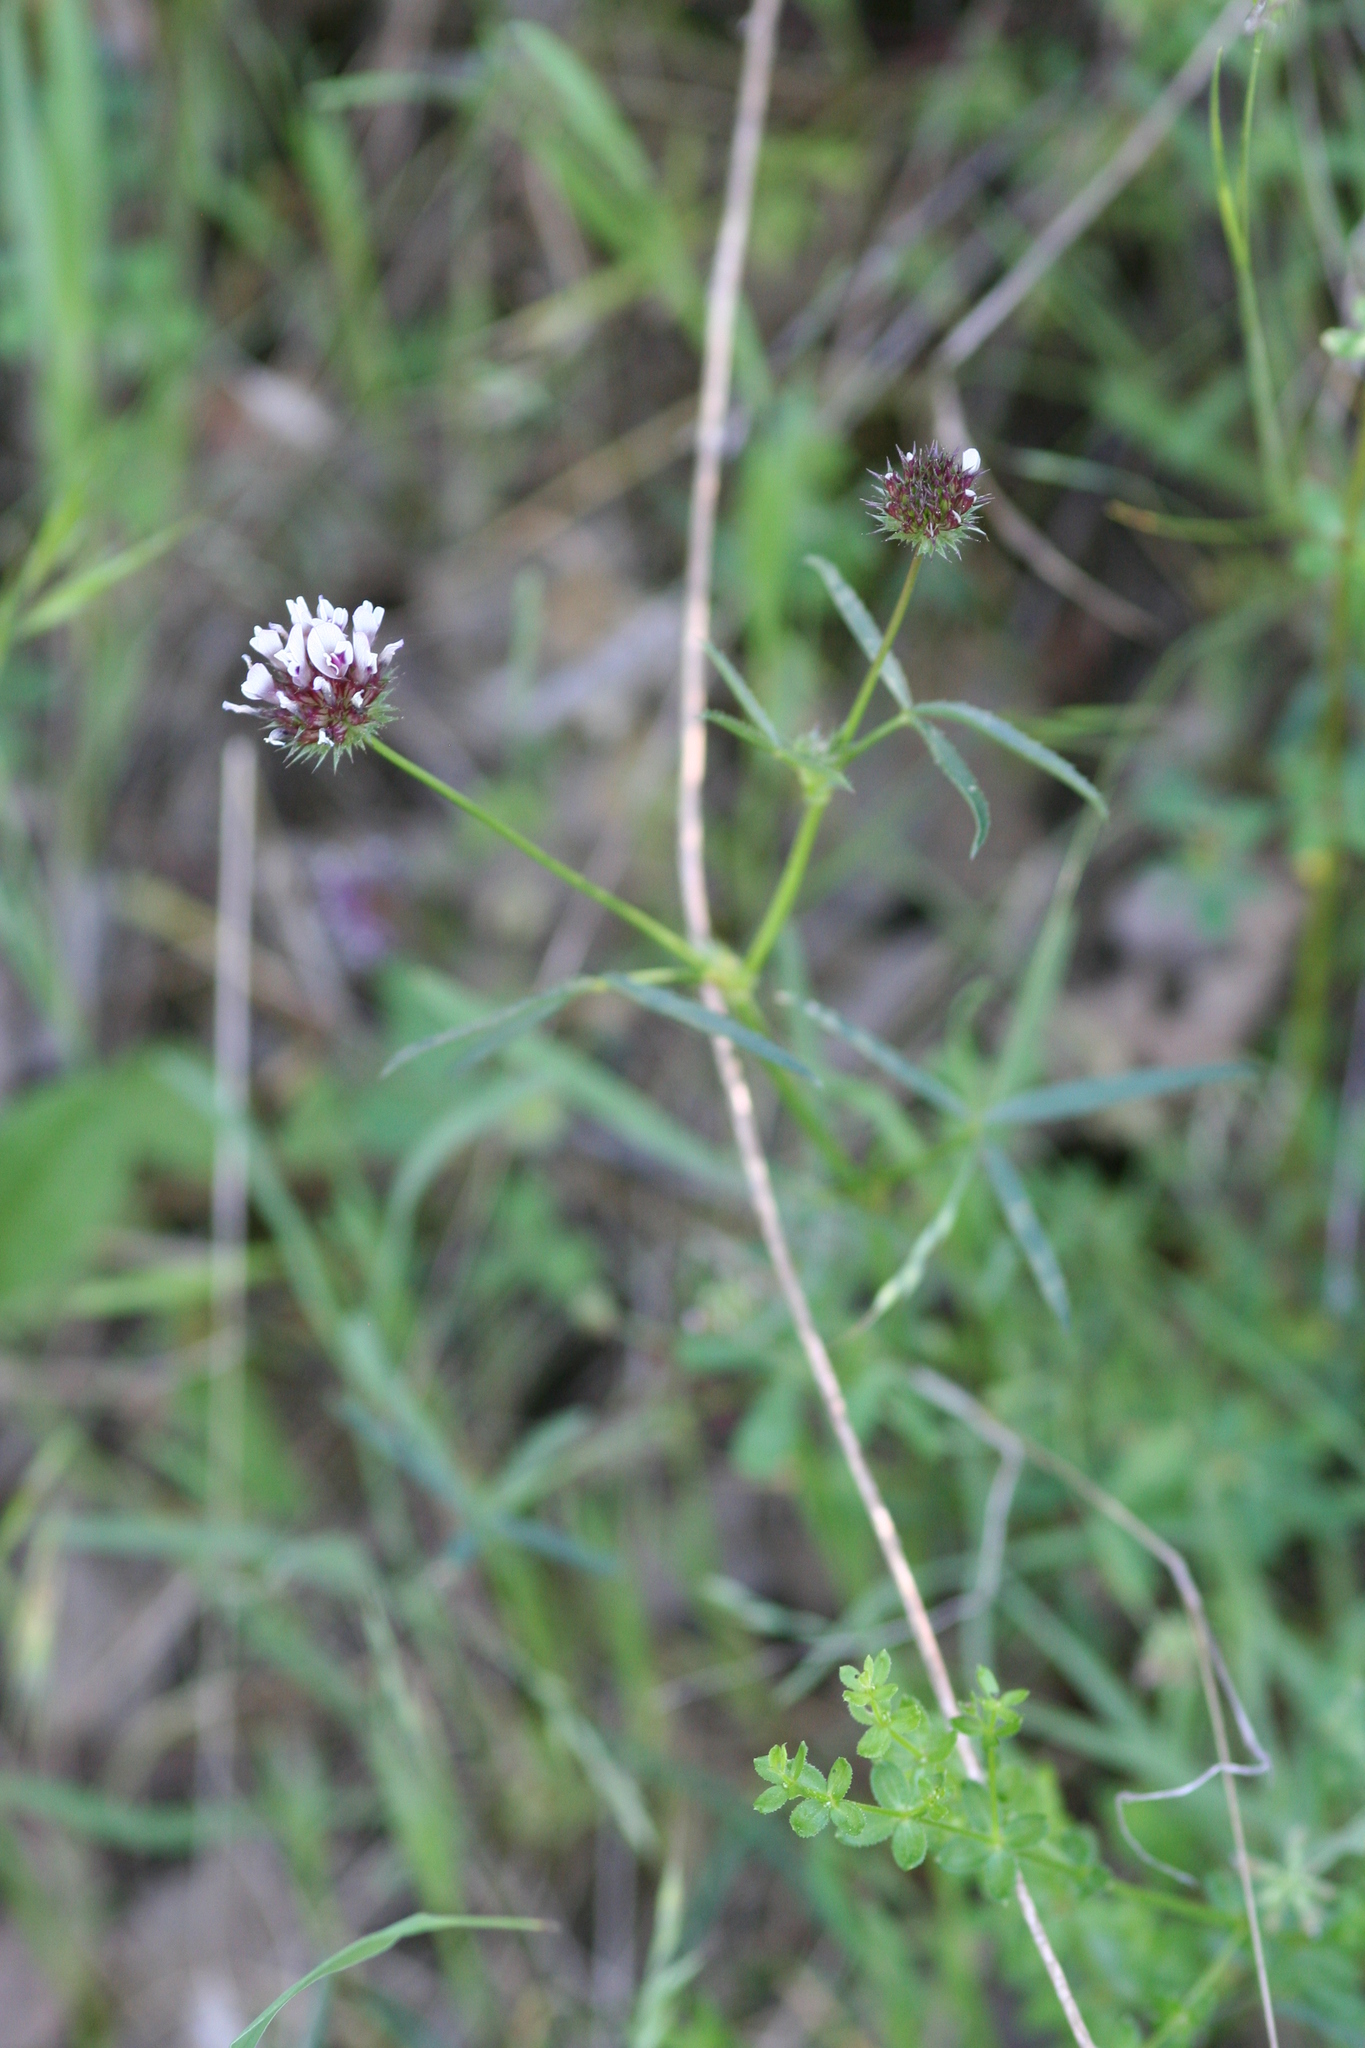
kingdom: Plantae
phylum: Tracheophyta
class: Magnoliopsida
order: Fabales
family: Fabaceae
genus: Trifolium
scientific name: Trifolium willdenovii
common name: Tomcat clover
